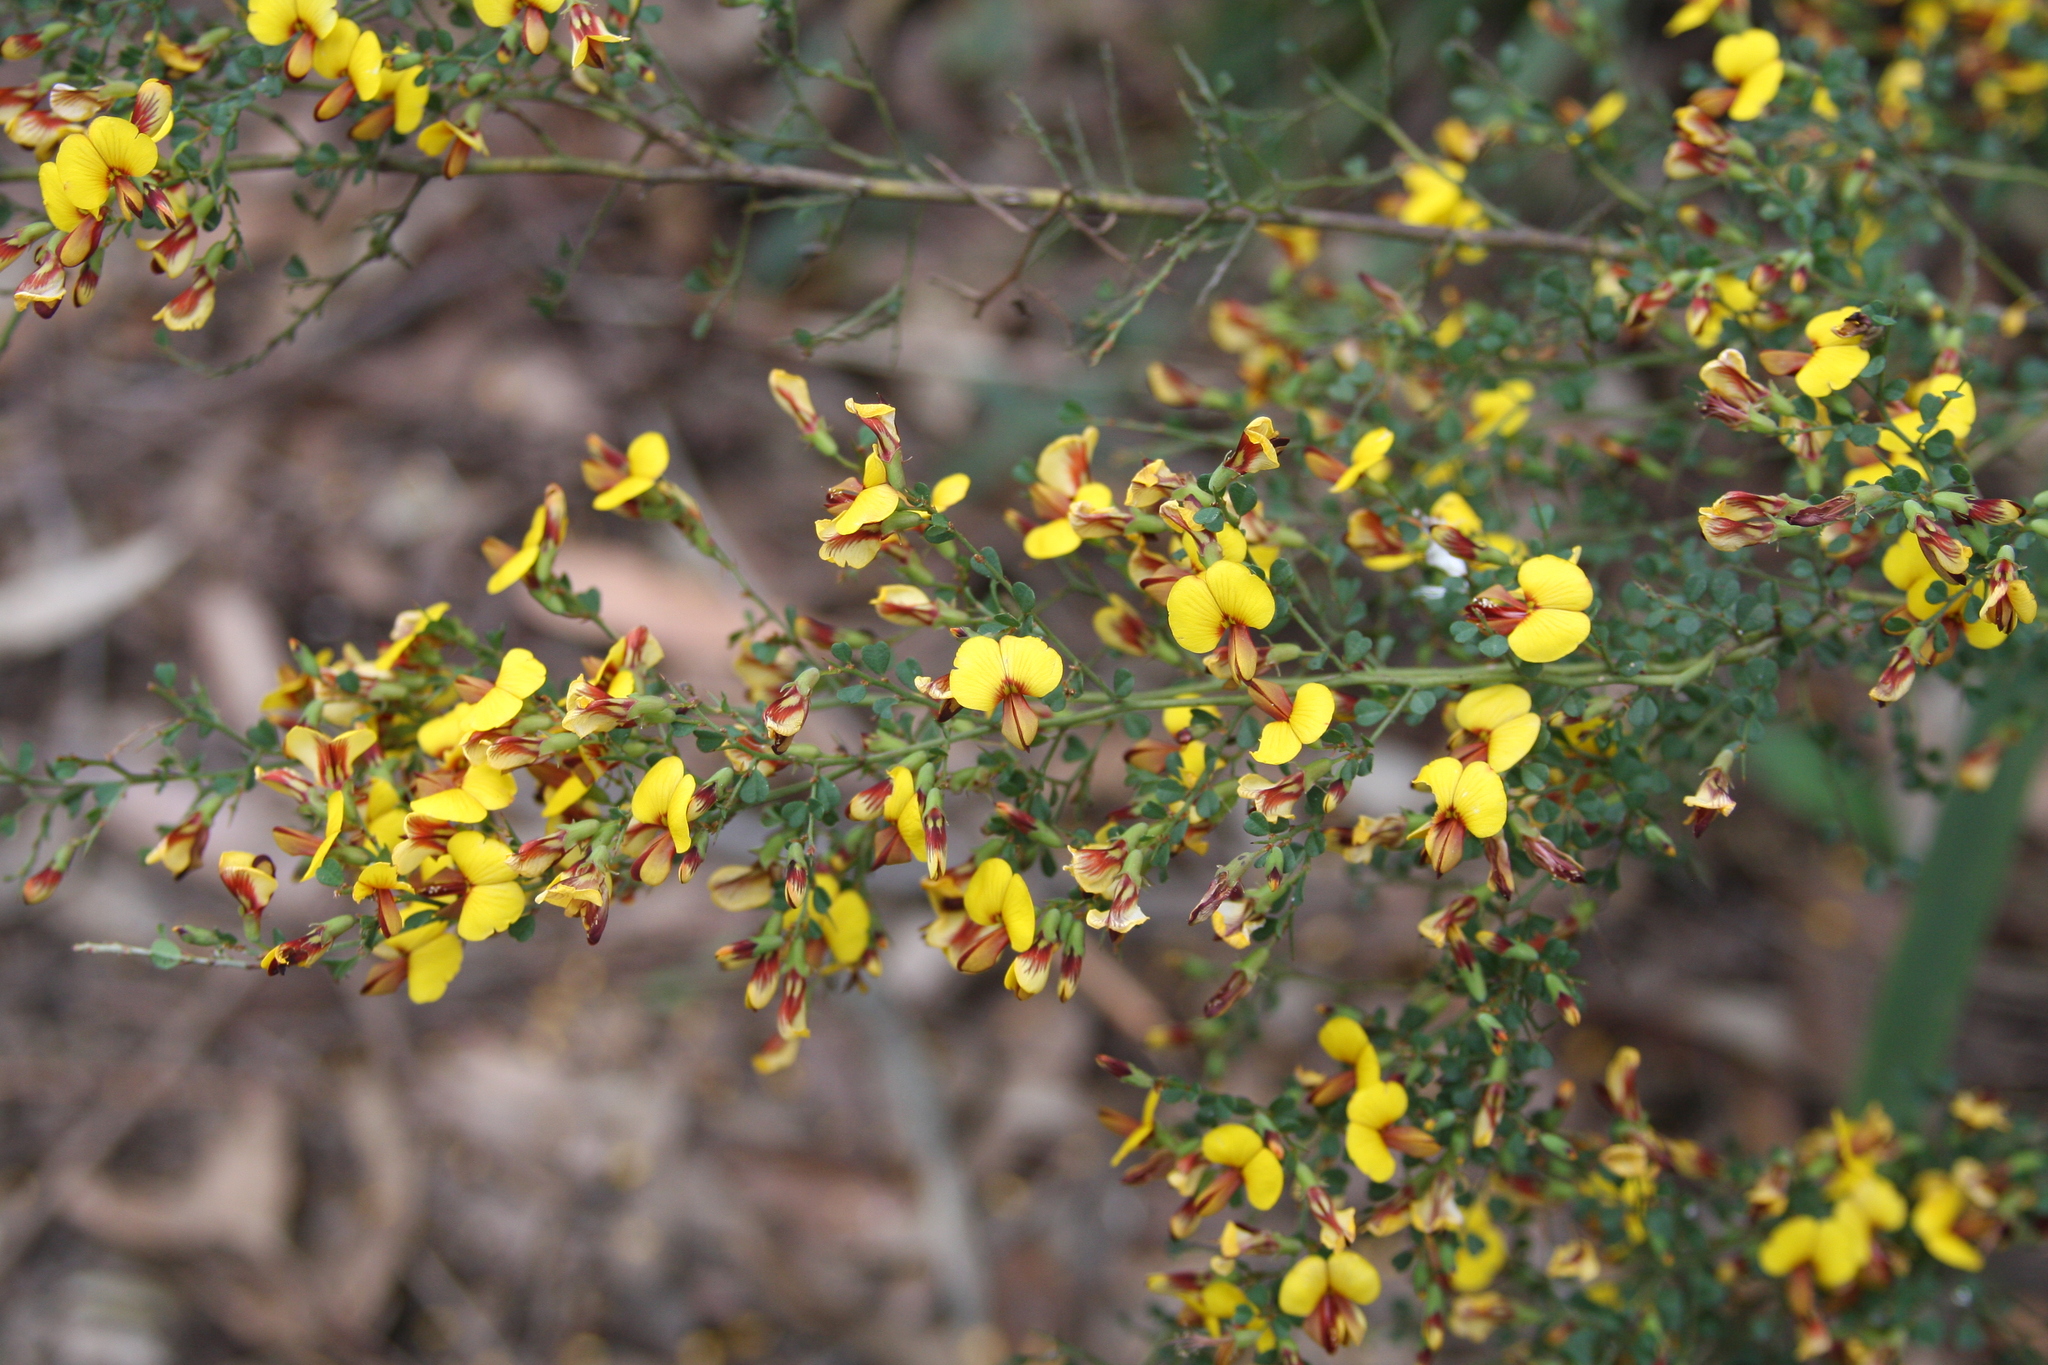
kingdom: Plantae
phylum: Tracheophyta
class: Magnoliopsida
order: Fabales
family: Fabaceae
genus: Bossiaea
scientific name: Bossiaea obcordata
